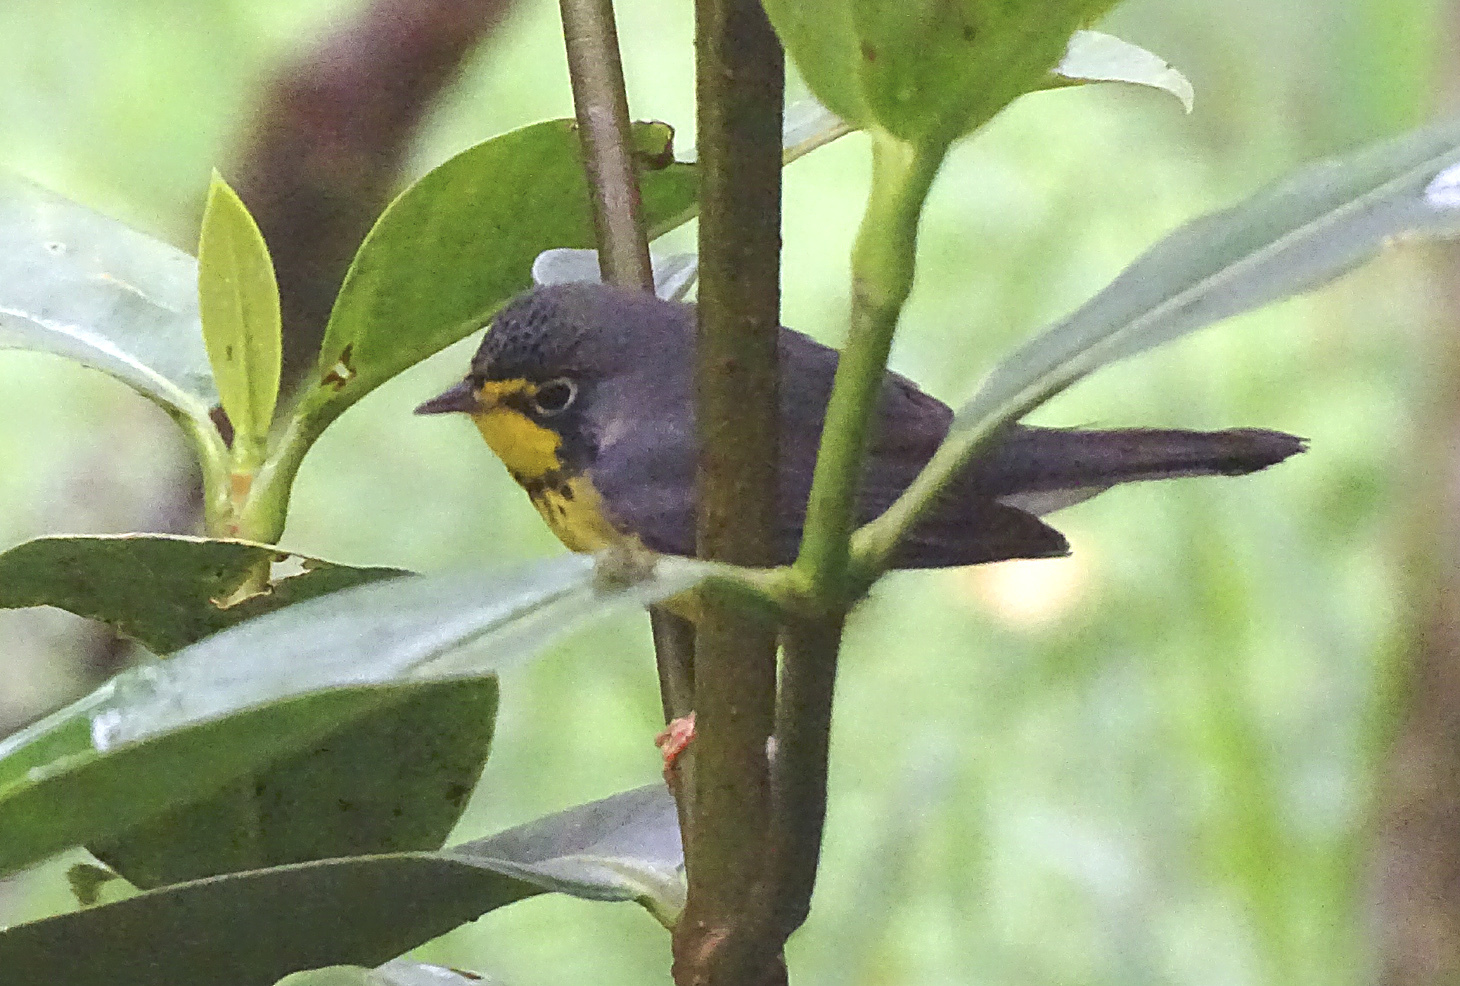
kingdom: Animalia
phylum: Chordata
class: Aves
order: Passeriformes
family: Parulidae
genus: Cardellina
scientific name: Cardellina canadensis
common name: Canada warbler
